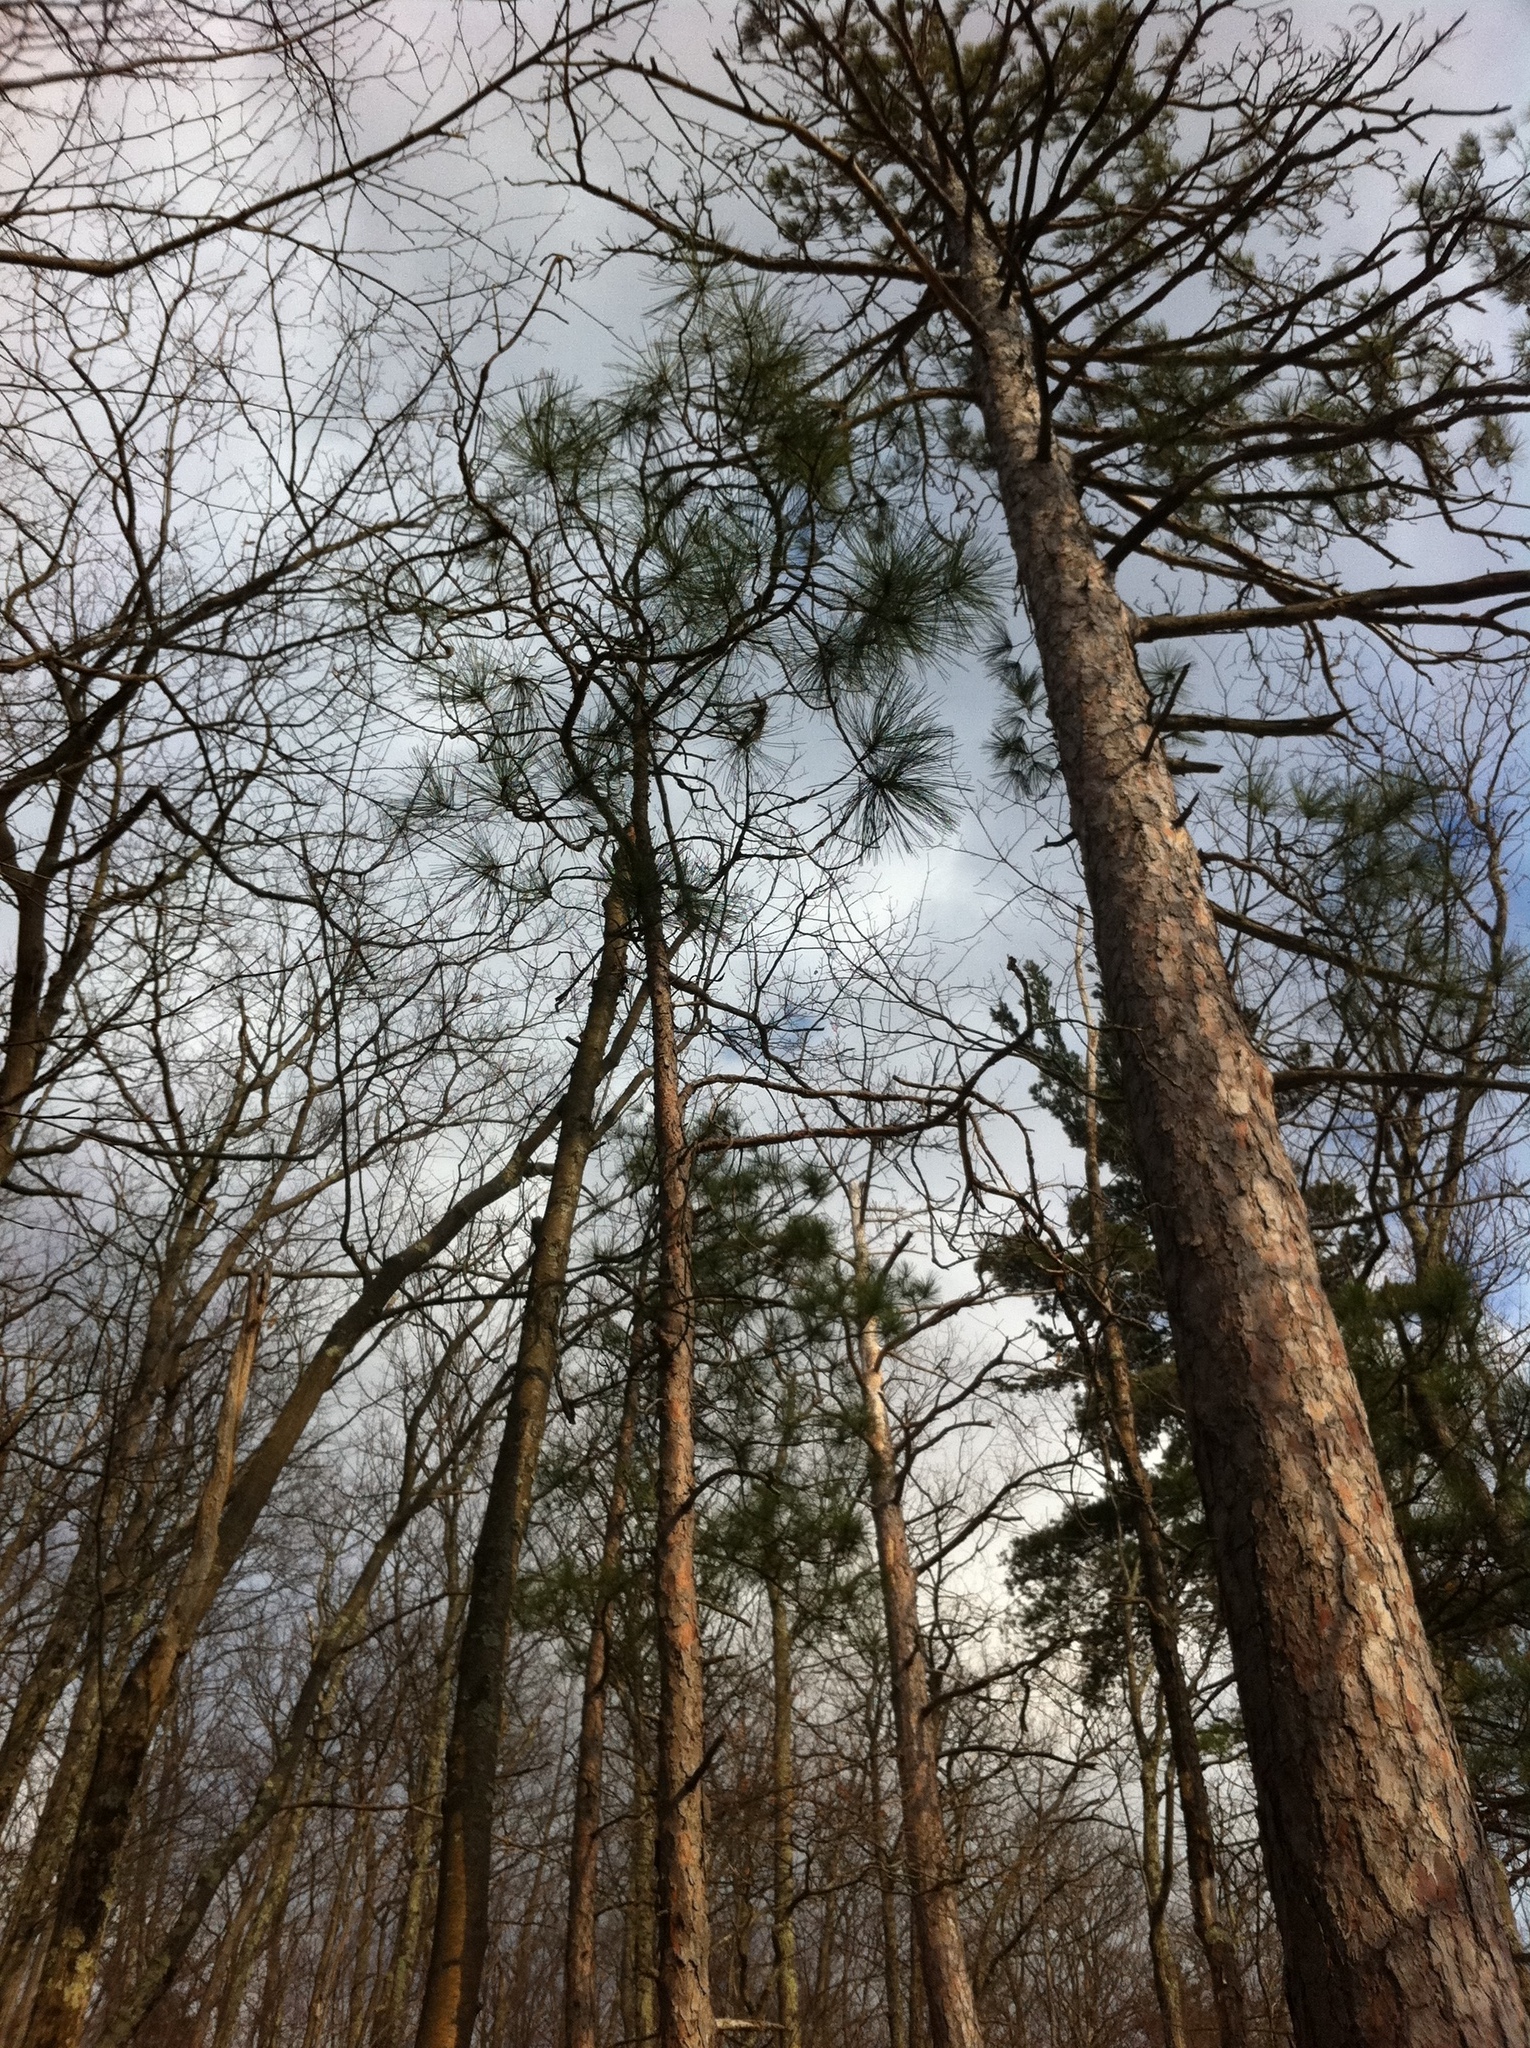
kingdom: Plantae
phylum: Tracheophyta
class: Pinopsida
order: Pinales
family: Pinaceae
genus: Pinus
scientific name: Pinus resinosa
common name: Norway pine
